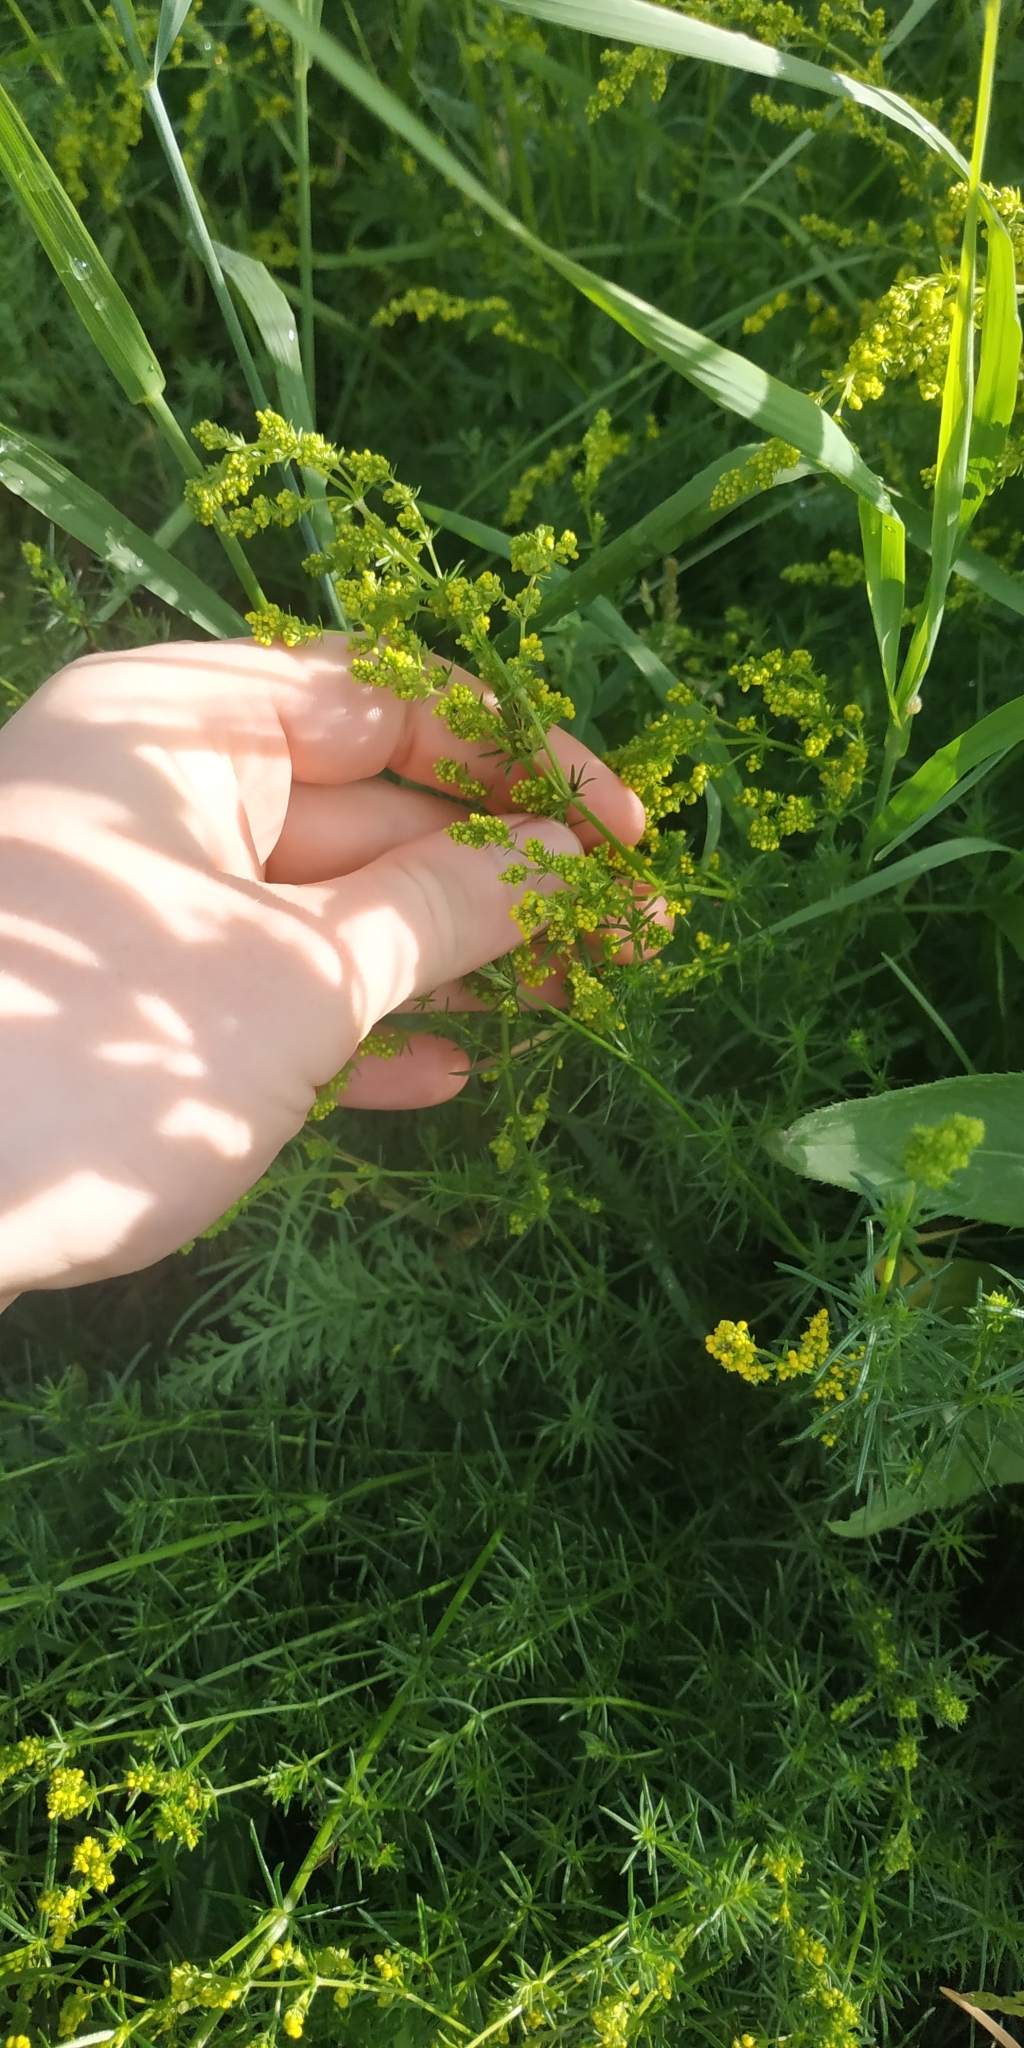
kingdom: Plantae
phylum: Tracheophyta
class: Magnoliopsida
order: Gentianales
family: Rubiaceae
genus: Galium
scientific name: Galium verum
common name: Lady's bedstraw
